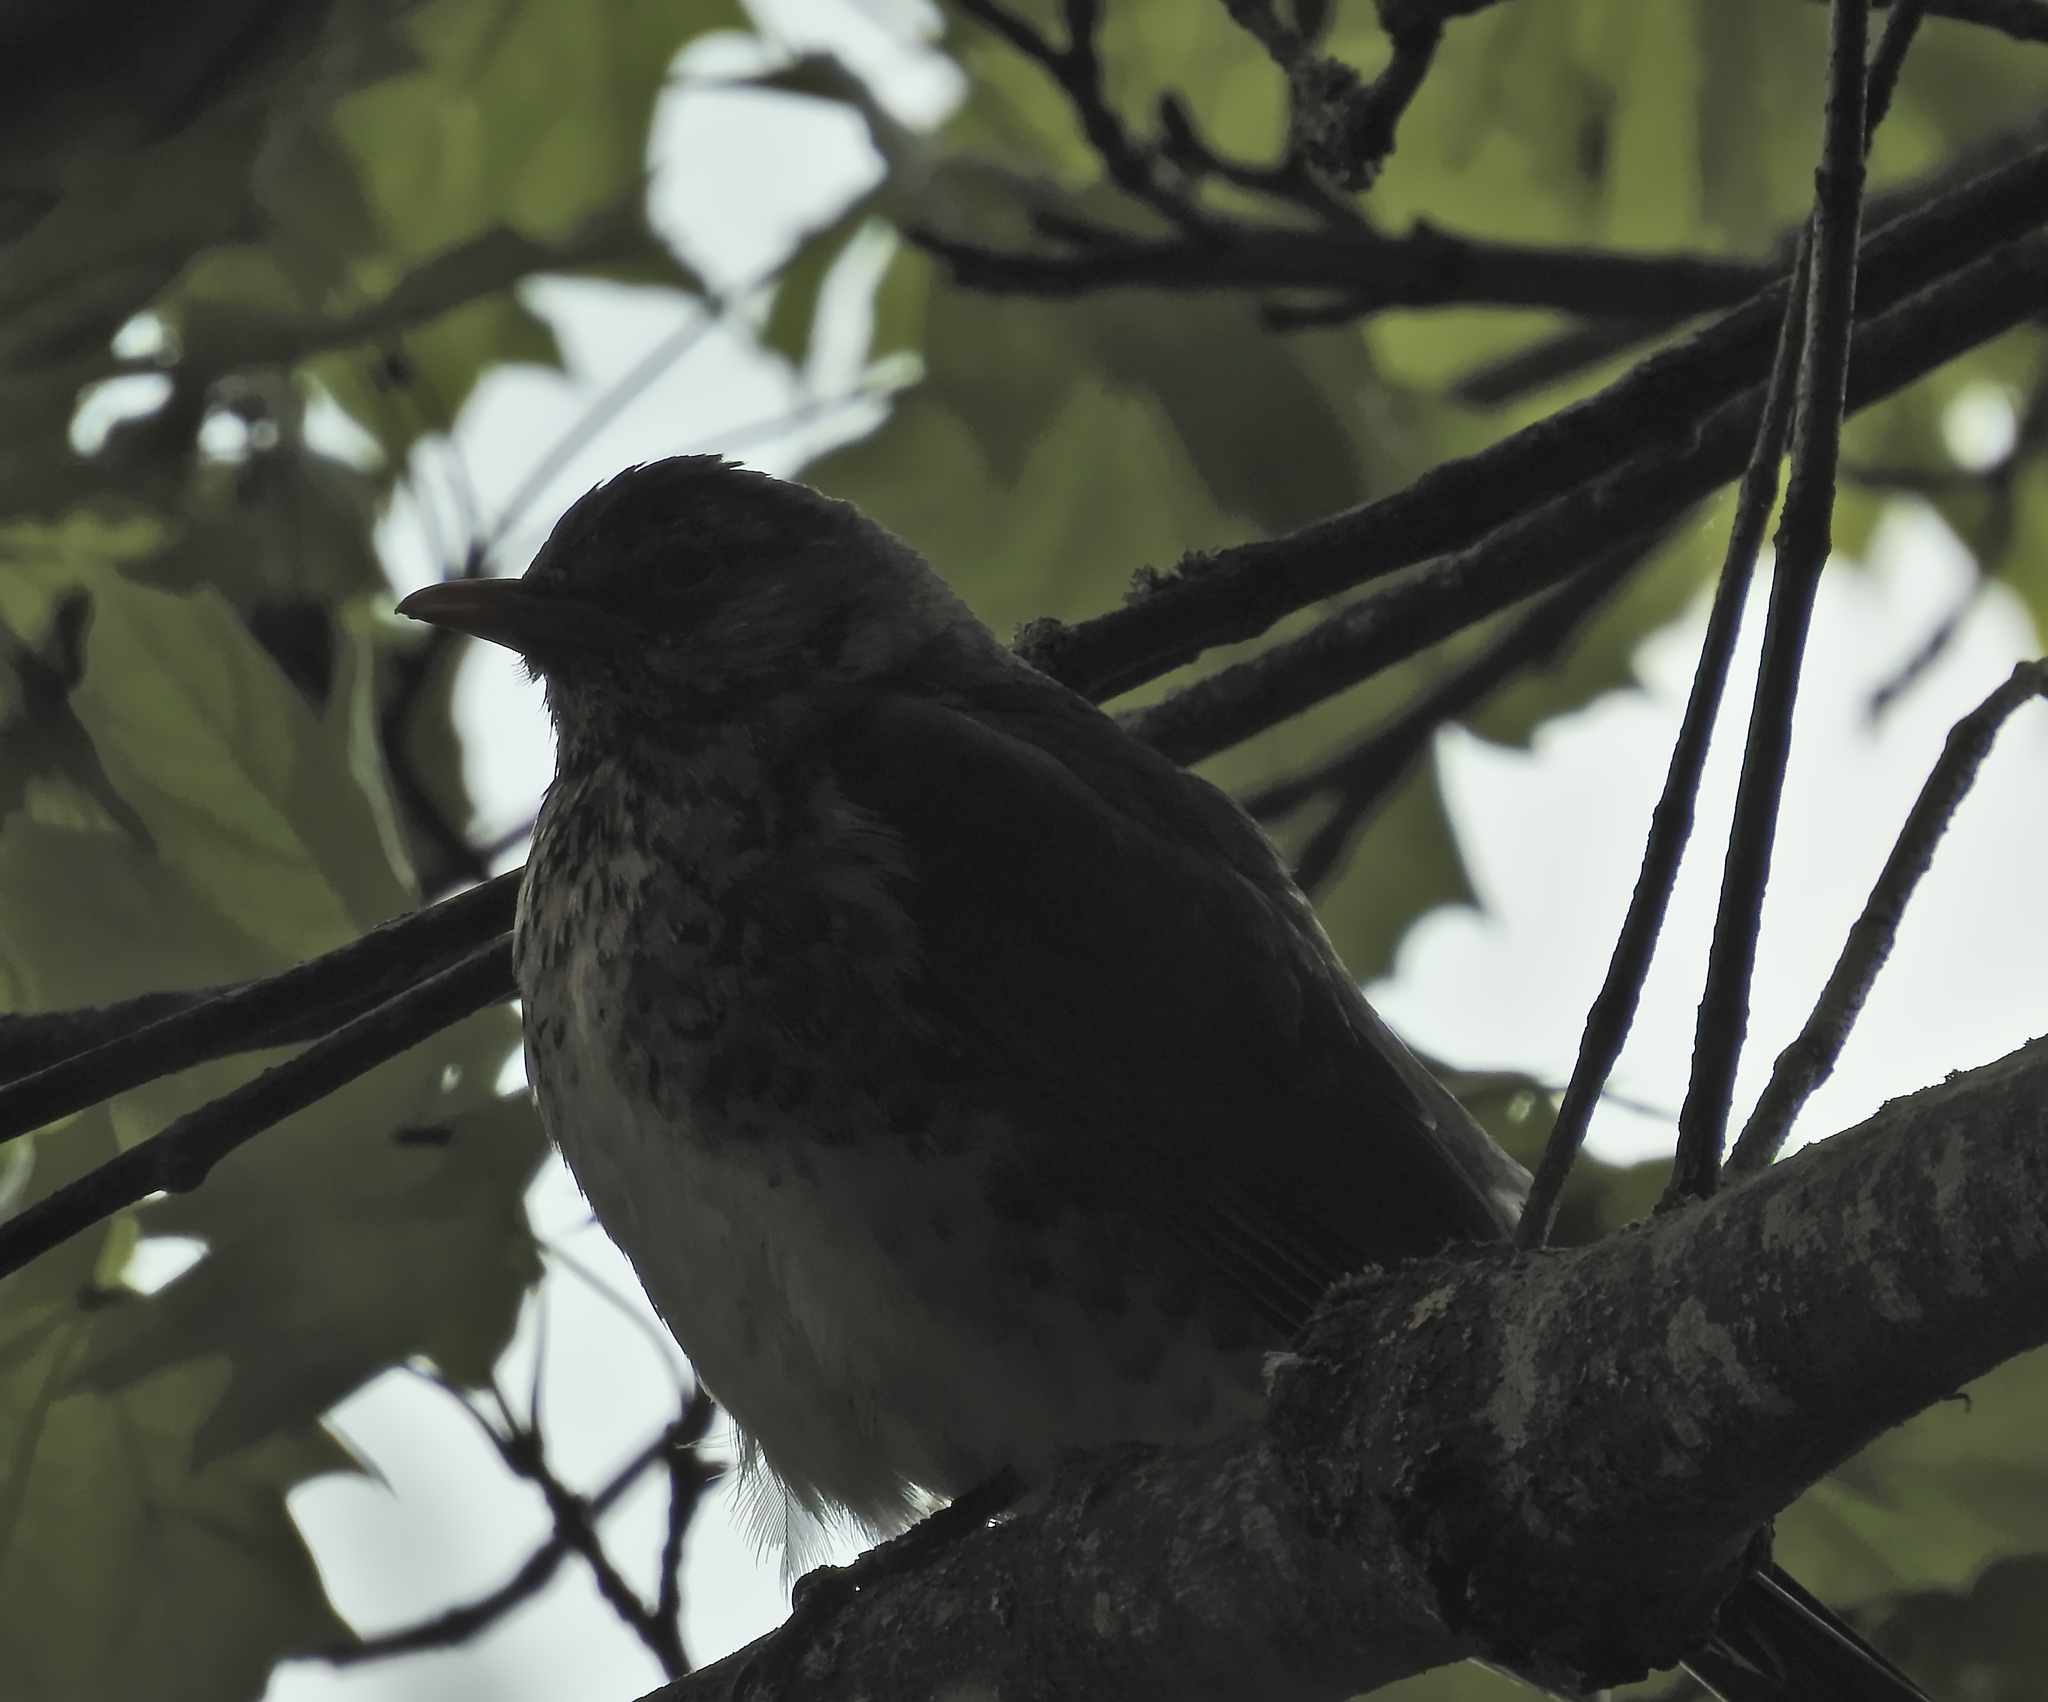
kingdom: Animalia
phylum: Chordata
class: Aves
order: Passeriformes
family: Turdidae
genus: Turdus
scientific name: Turdus pilaris
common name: Fieldfare
